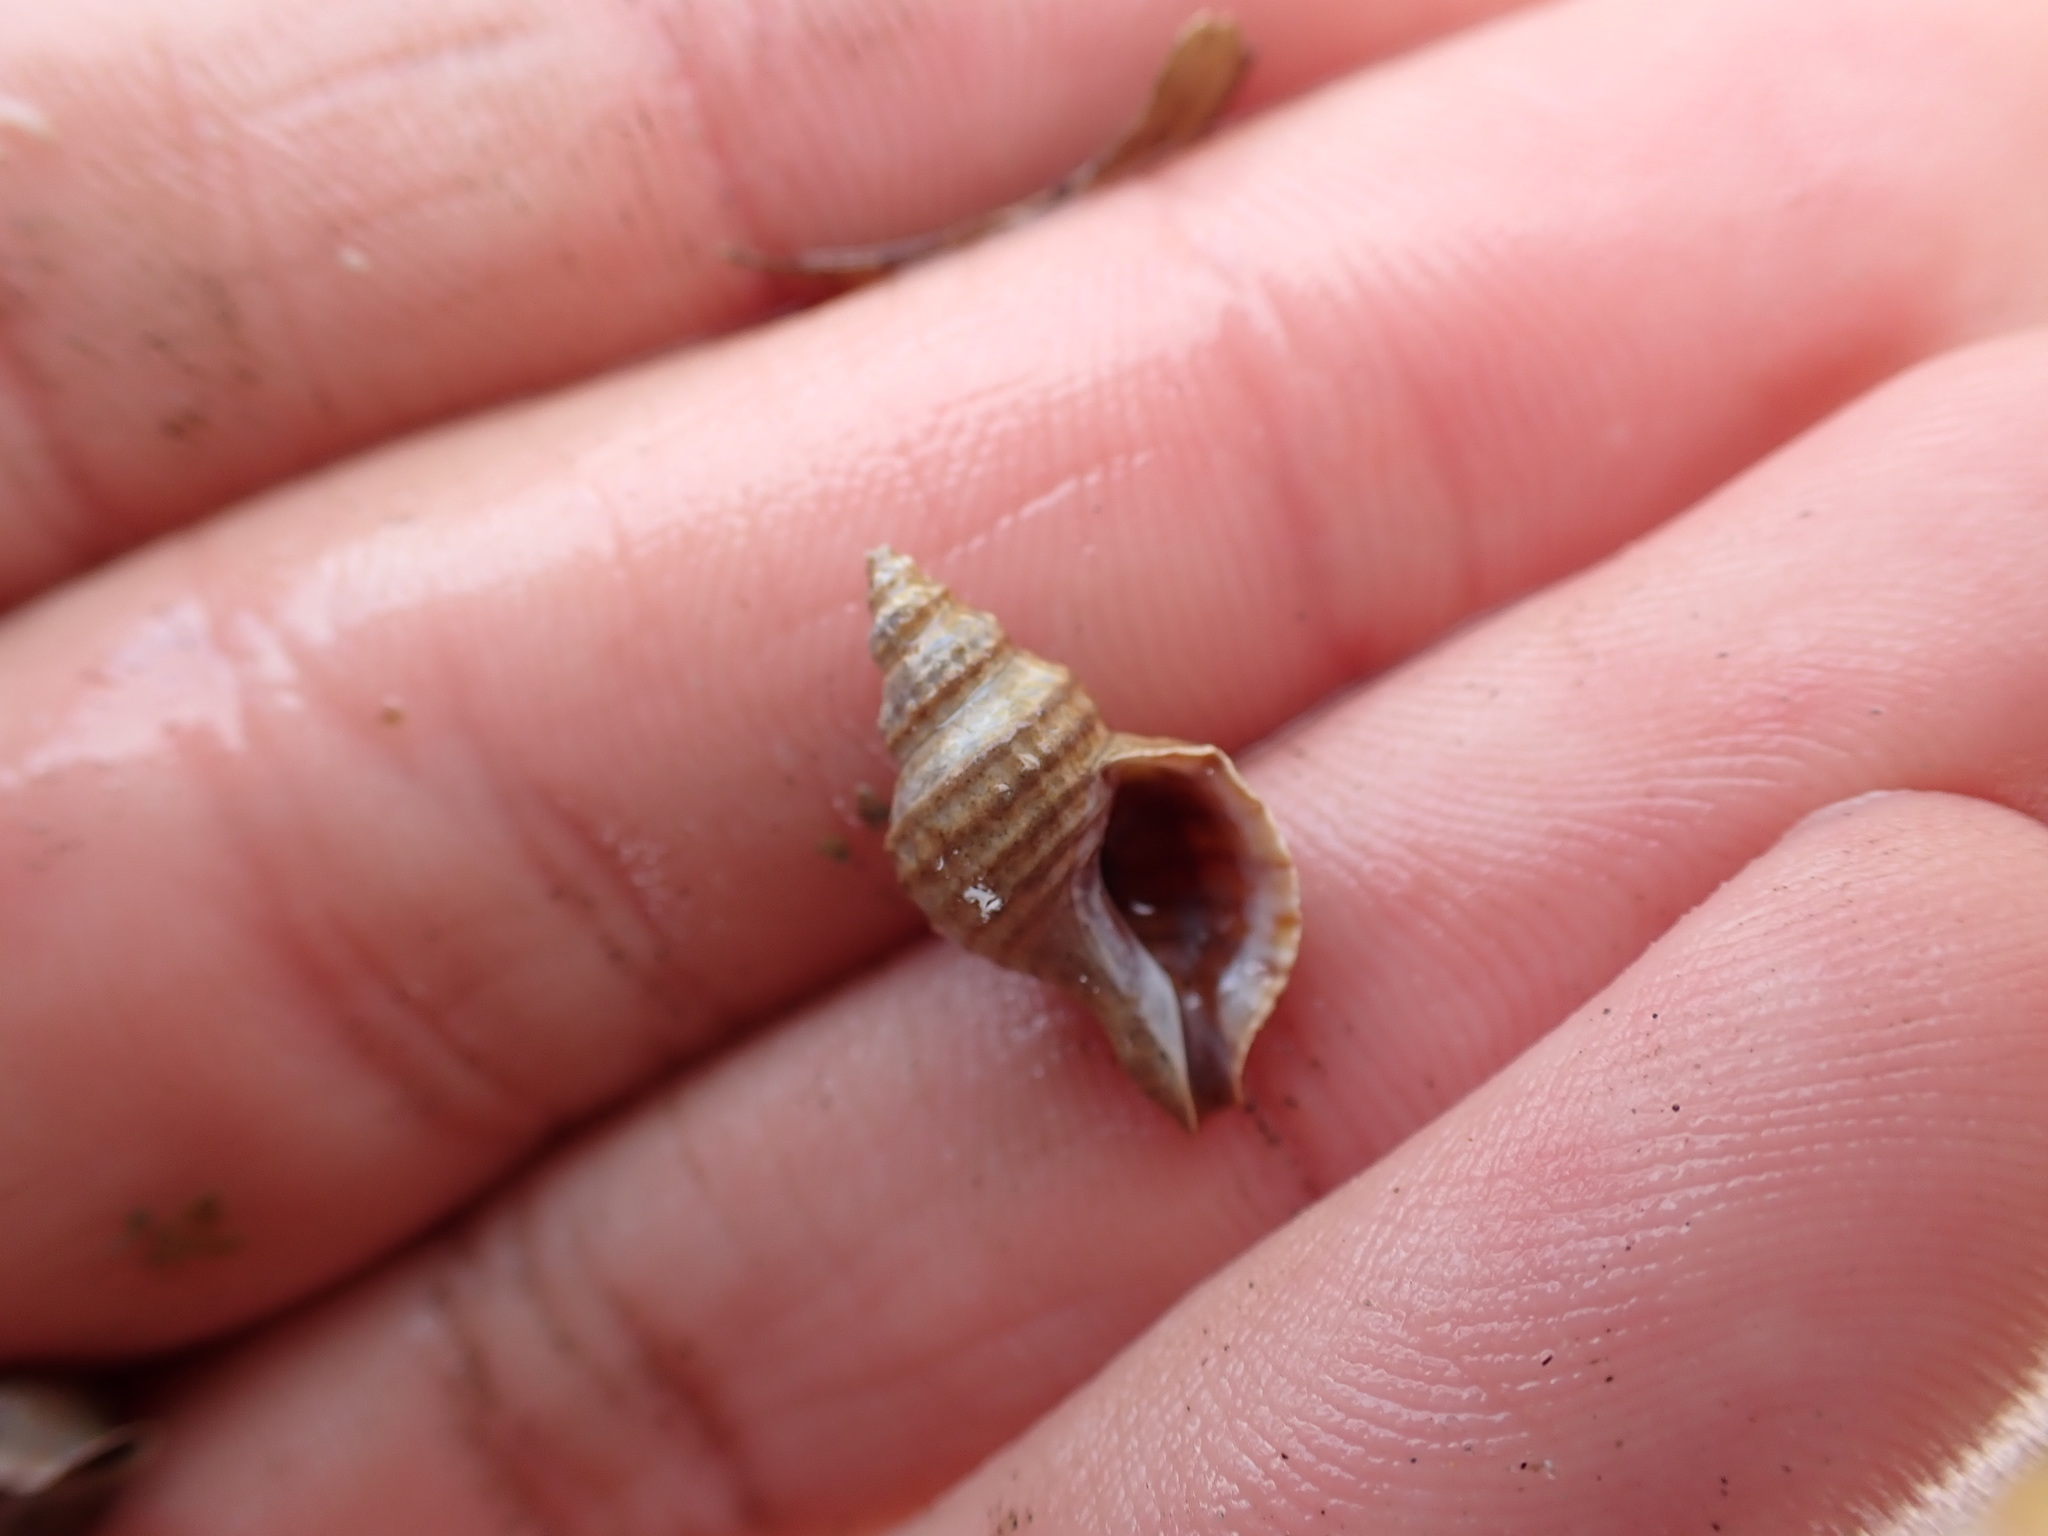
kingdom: Animalia
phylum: Mollusca
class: Gastropoda
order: Neogastropoda
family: Muricidae
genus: Xymene
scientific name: Xymene plebeius
